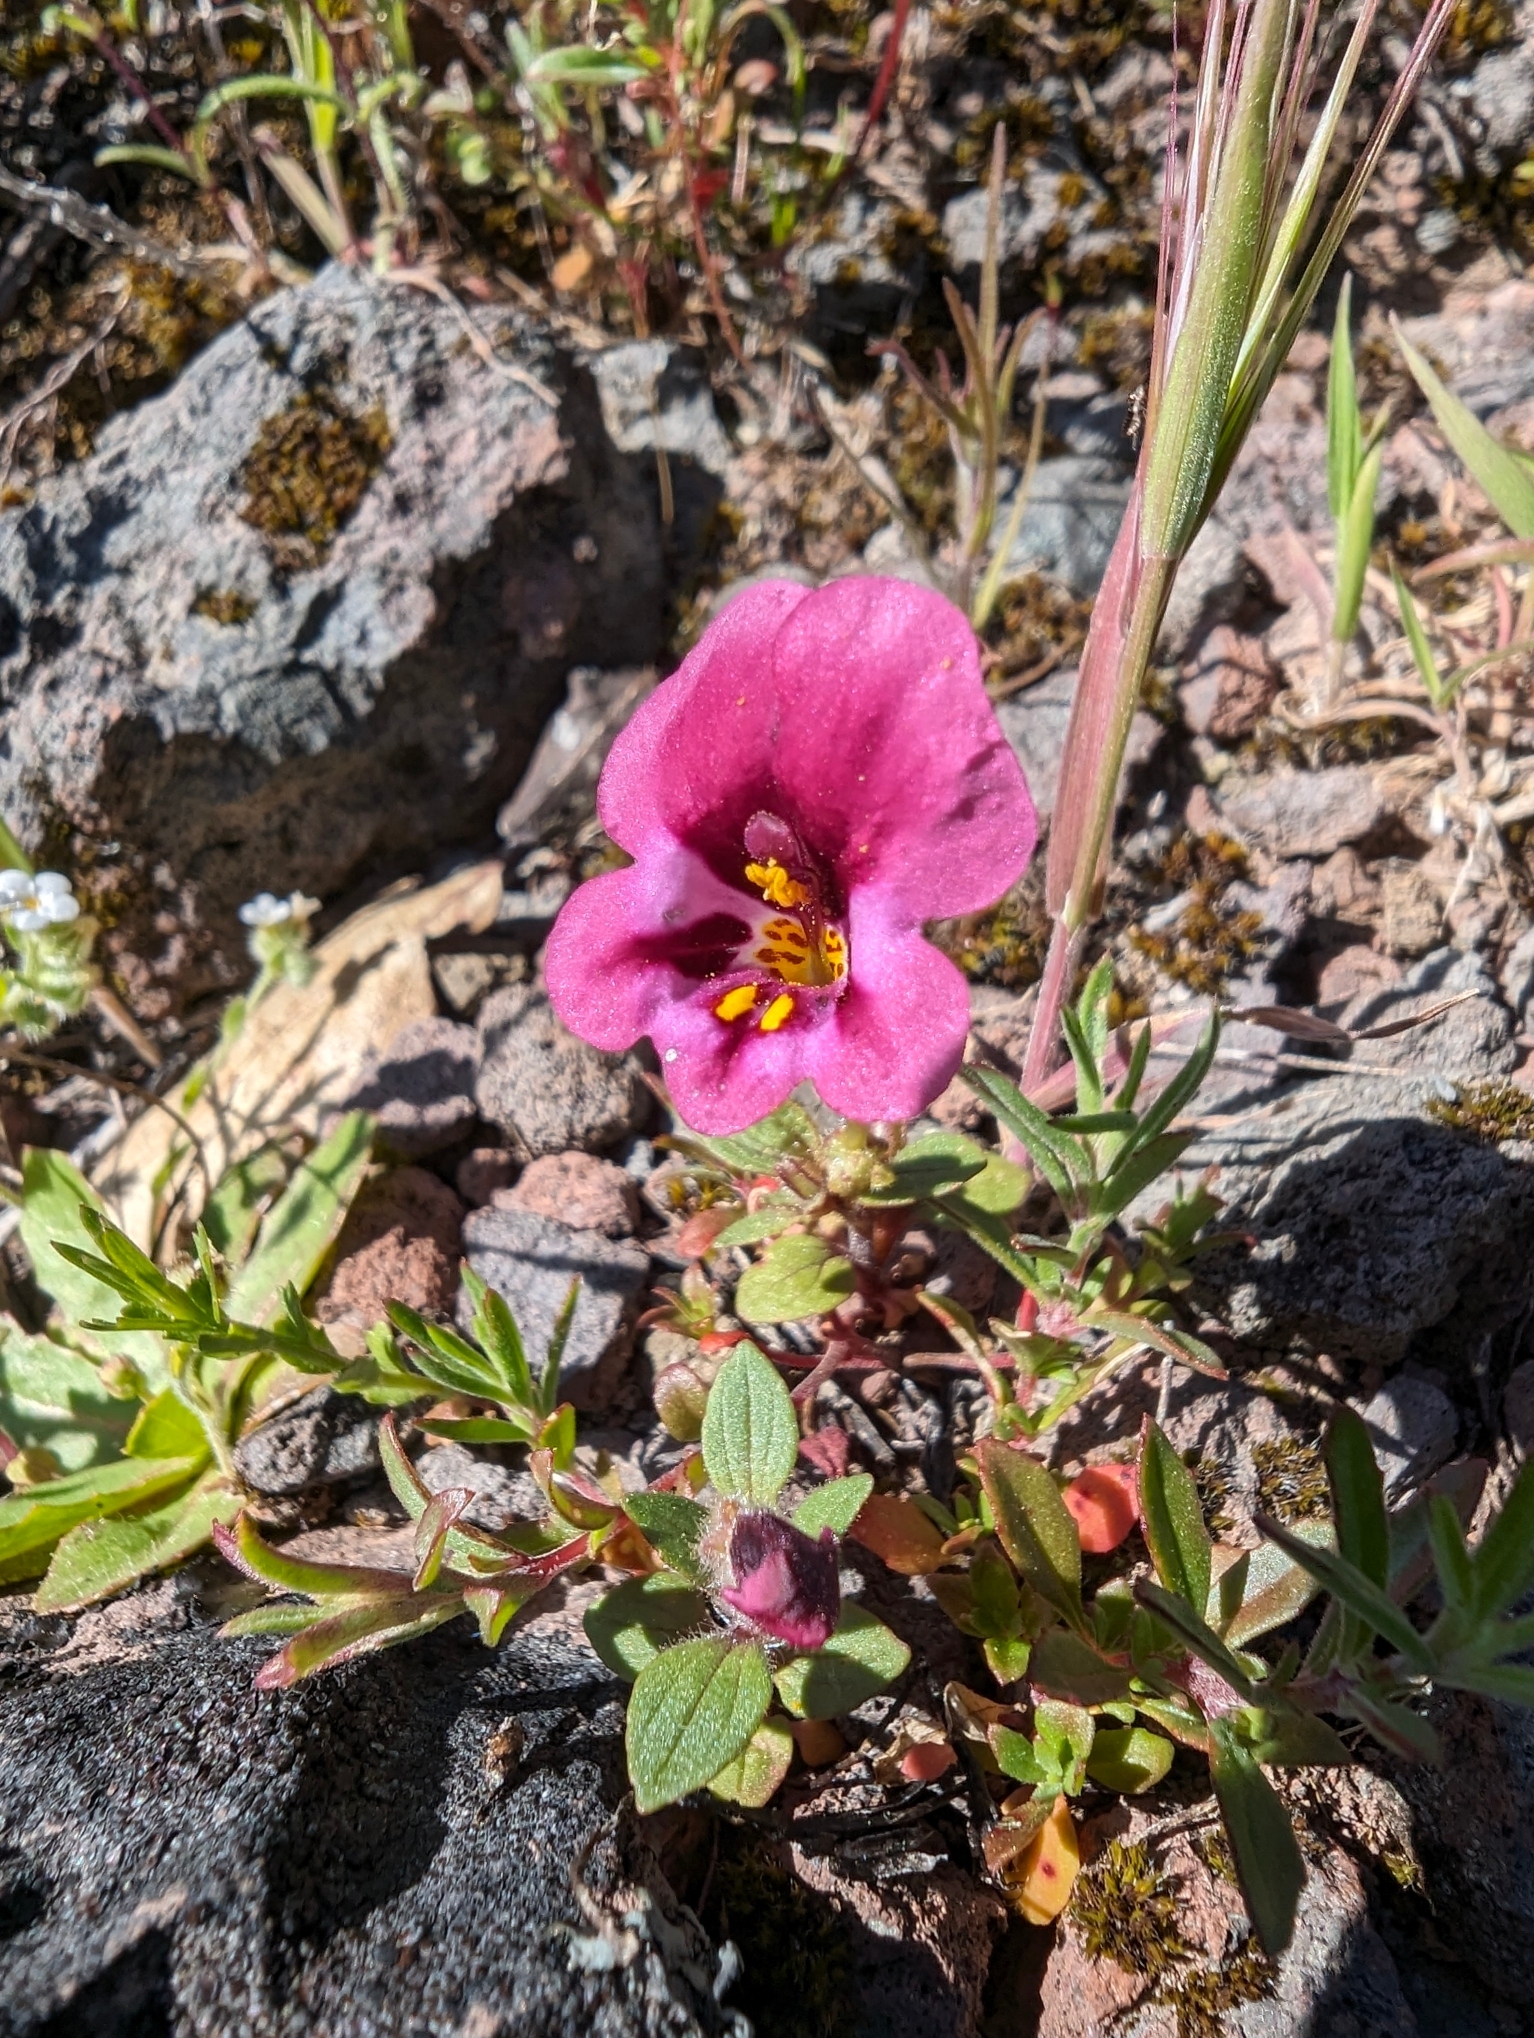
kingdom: Plantae
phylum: Tracheophyta
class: Magnoliopsida
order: Lamiales
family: Phrymaceae
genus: Diplacus
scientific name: Diplacus kelloggii
